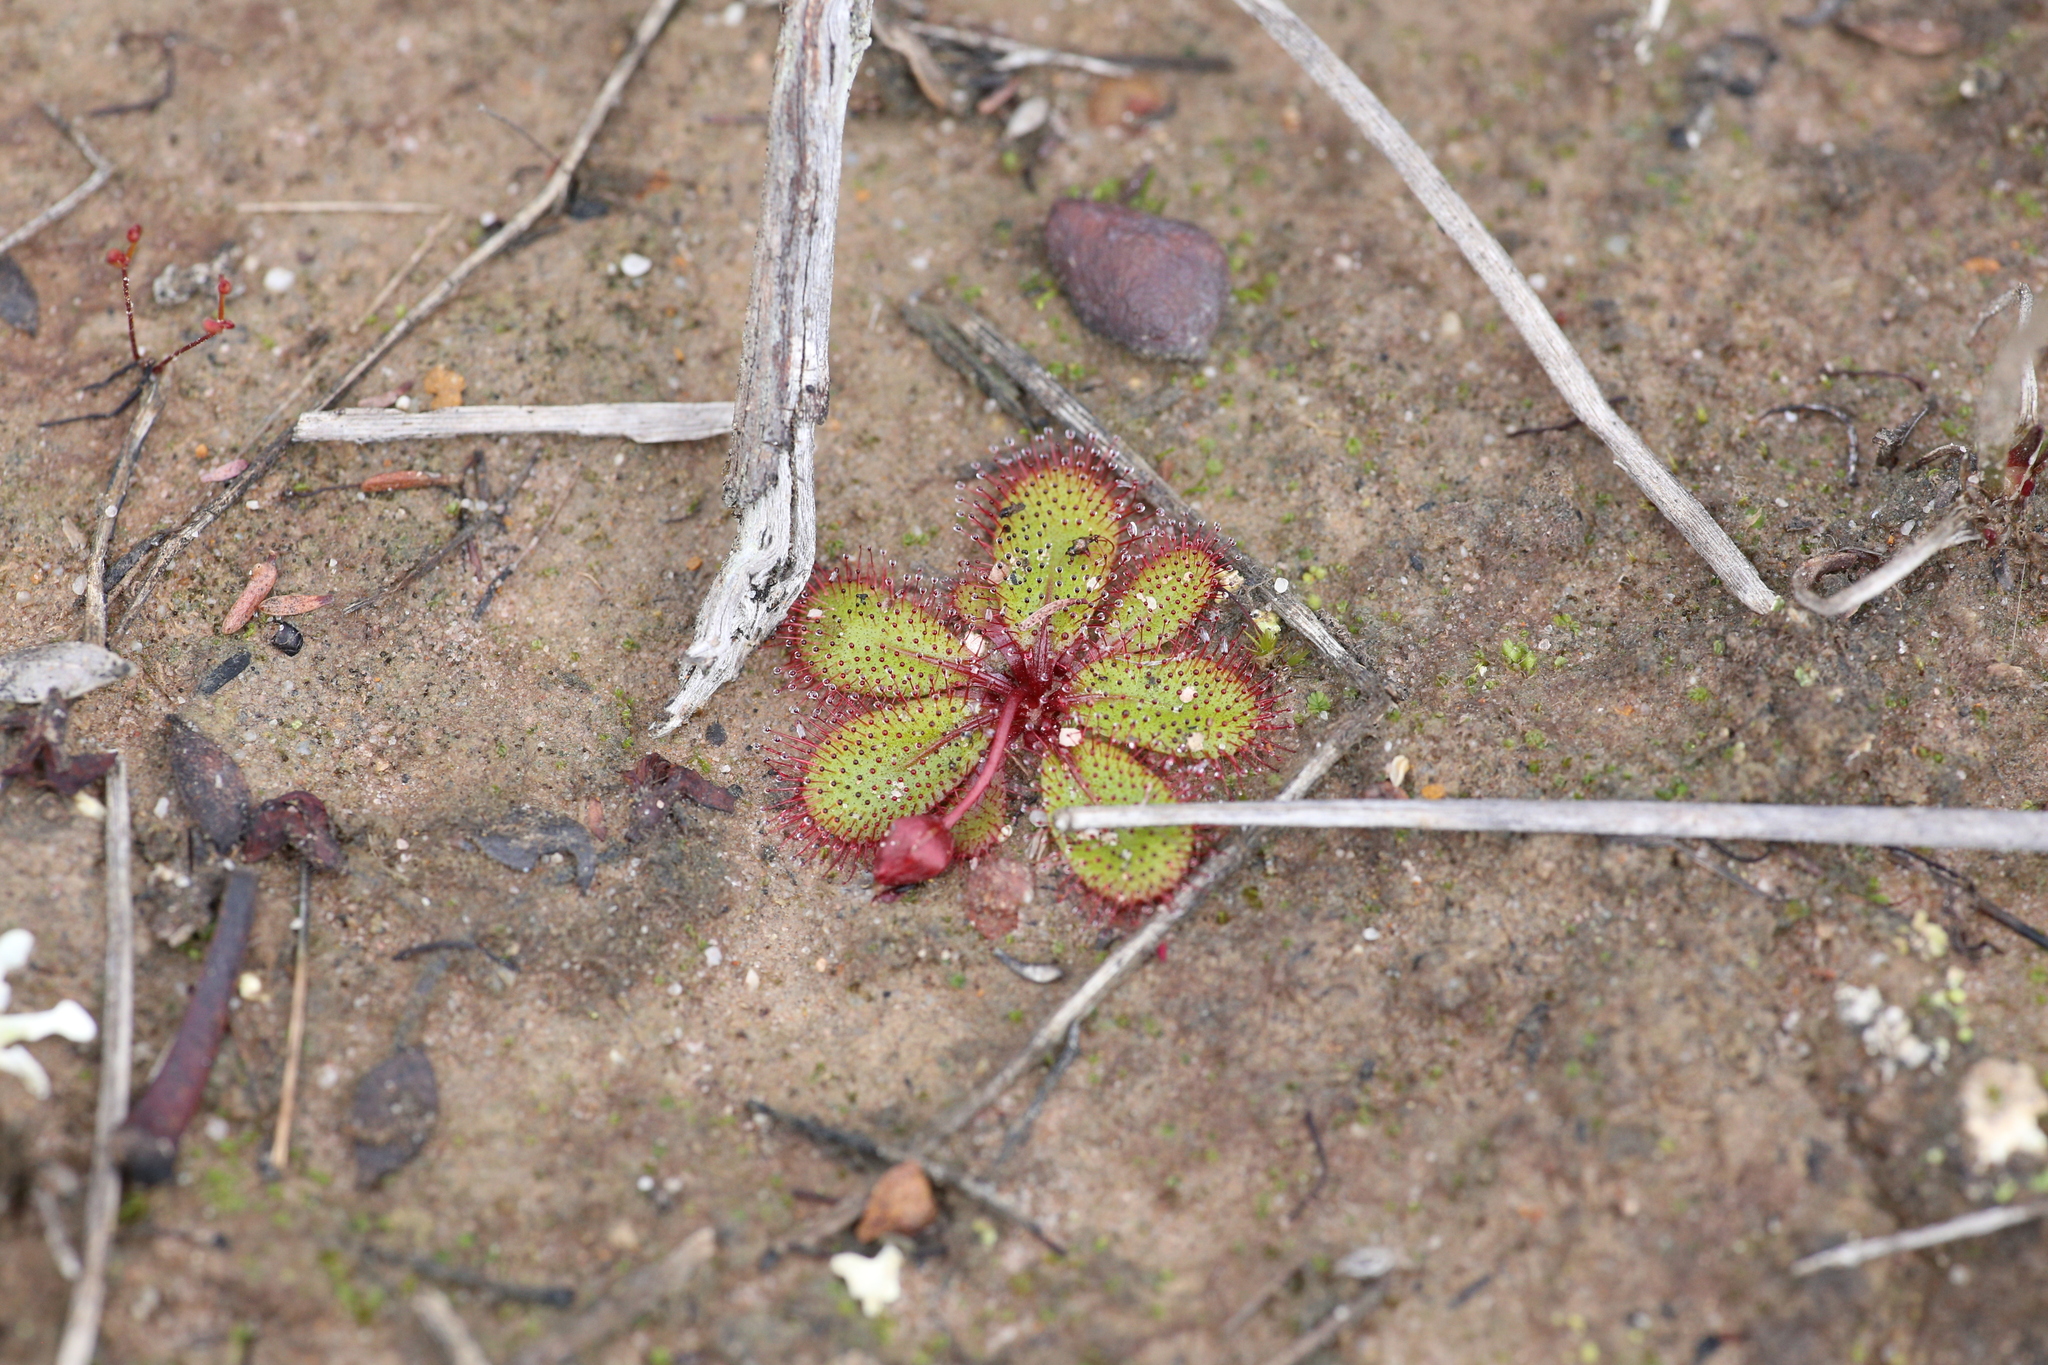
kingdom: Plantae
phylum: Tracheophyta
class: Magnoliopsida
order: Caryophyllales
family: Droseraceae
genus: Drosera
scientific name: Drosera tubaestylis
